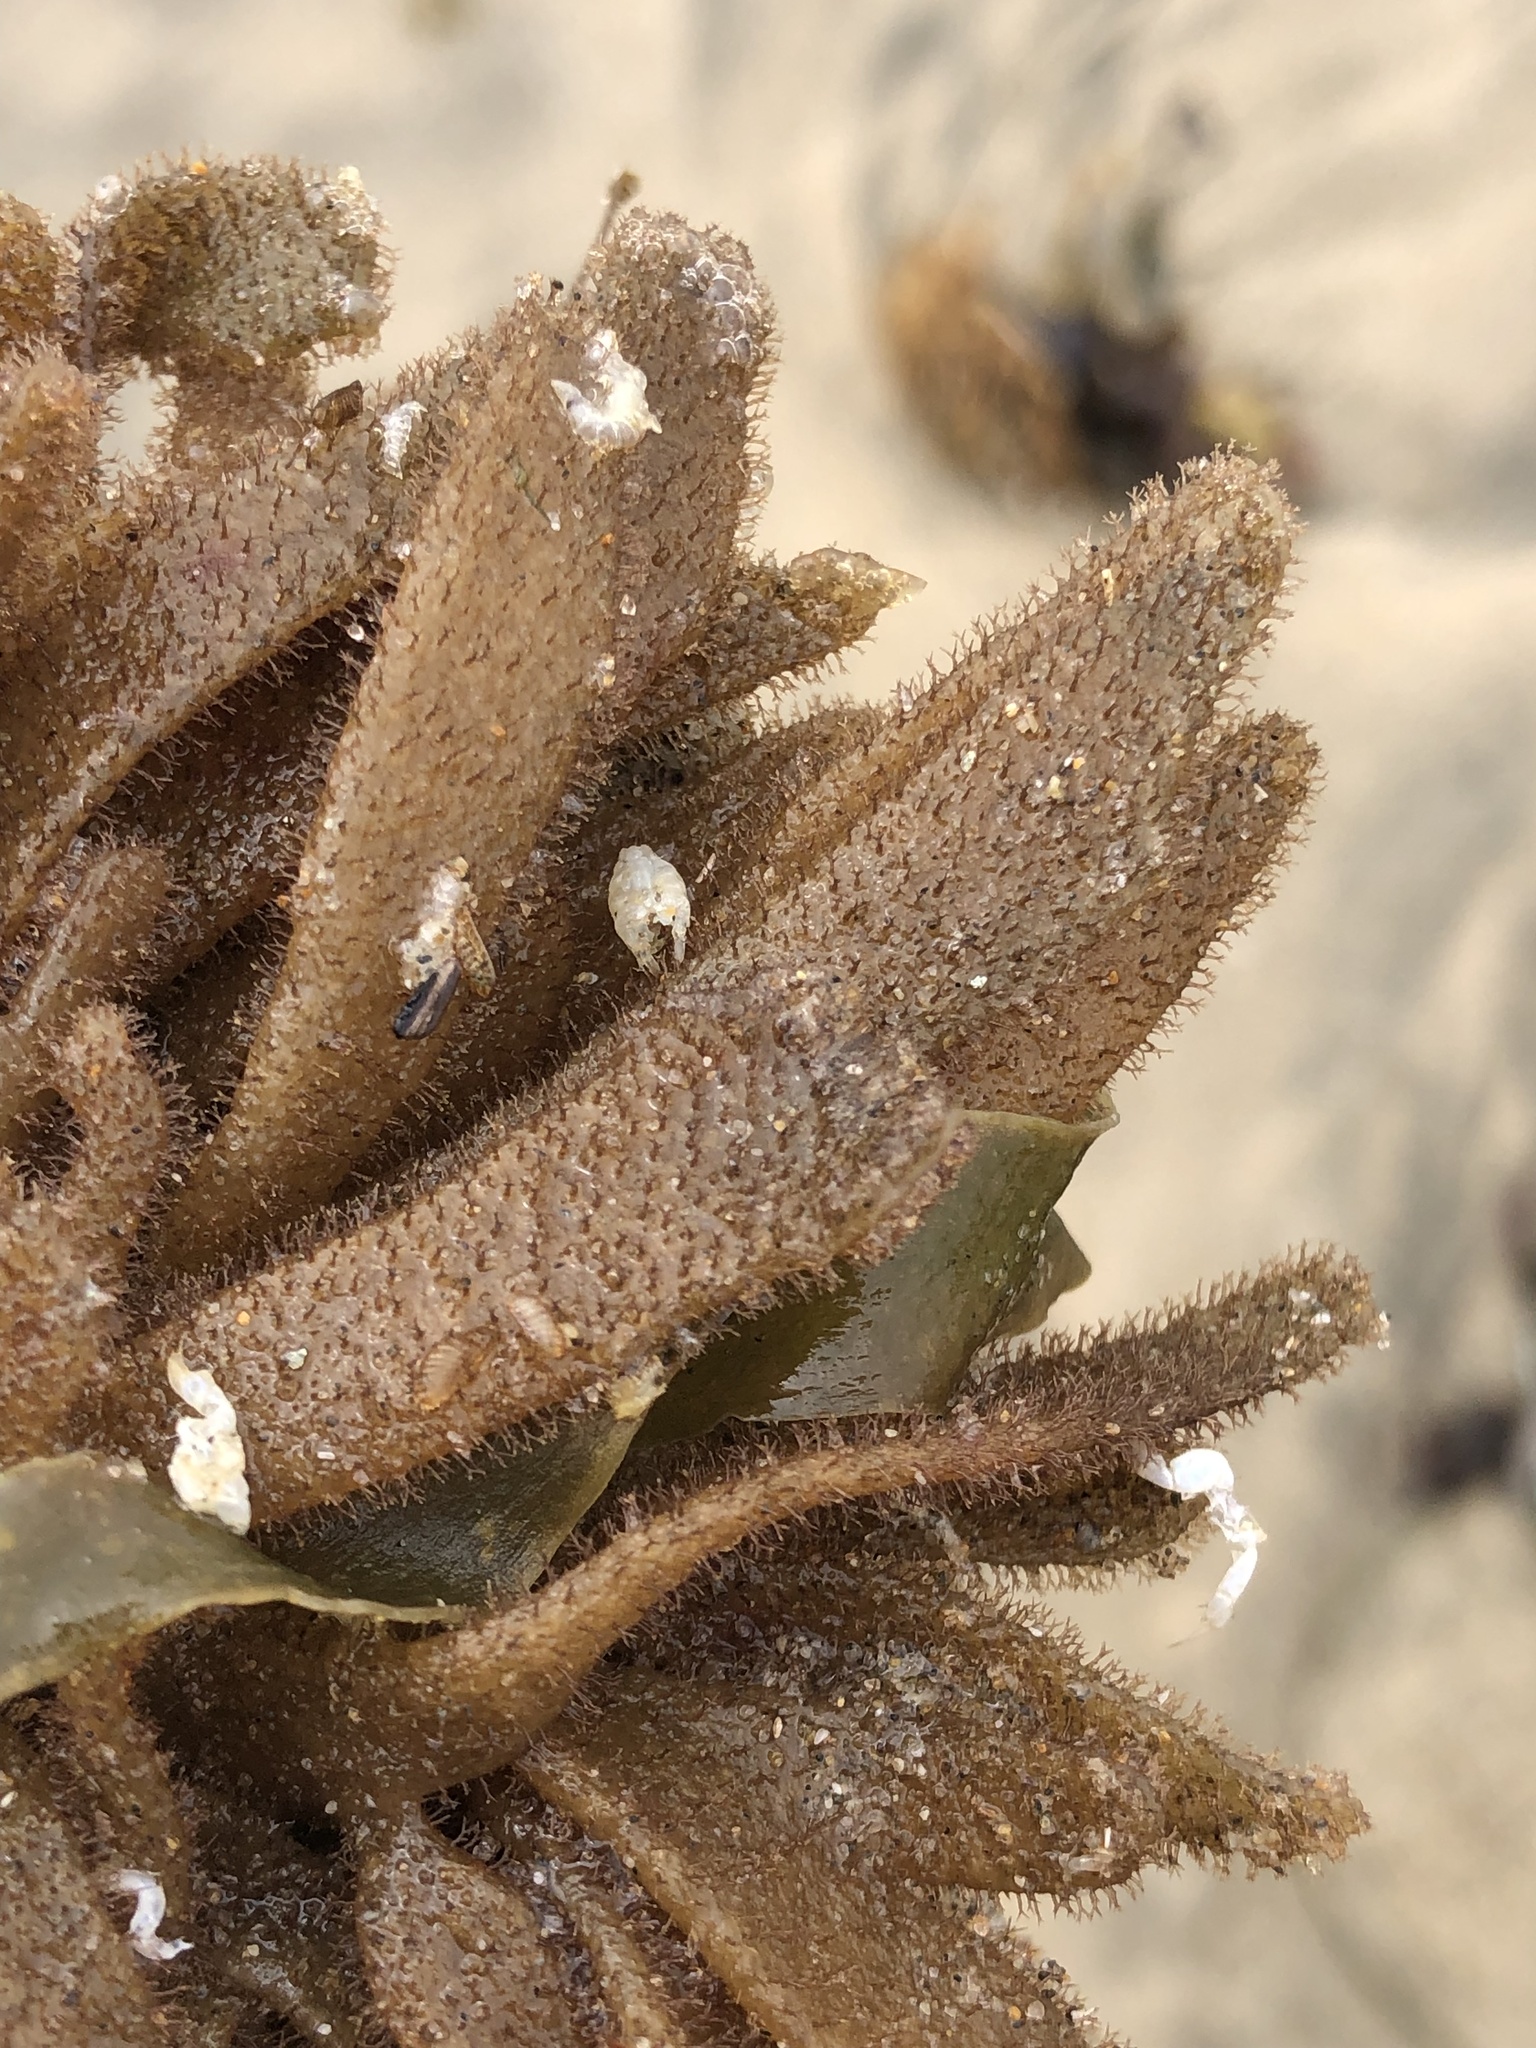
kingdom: Animalia
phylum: Bryozoa
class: Gymnolaemata
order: Ctenostomatida
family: Flustrellidridae
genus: Flustrellidra
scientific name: Flustrellidra corniculata
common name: Spiny leather bryozoan
